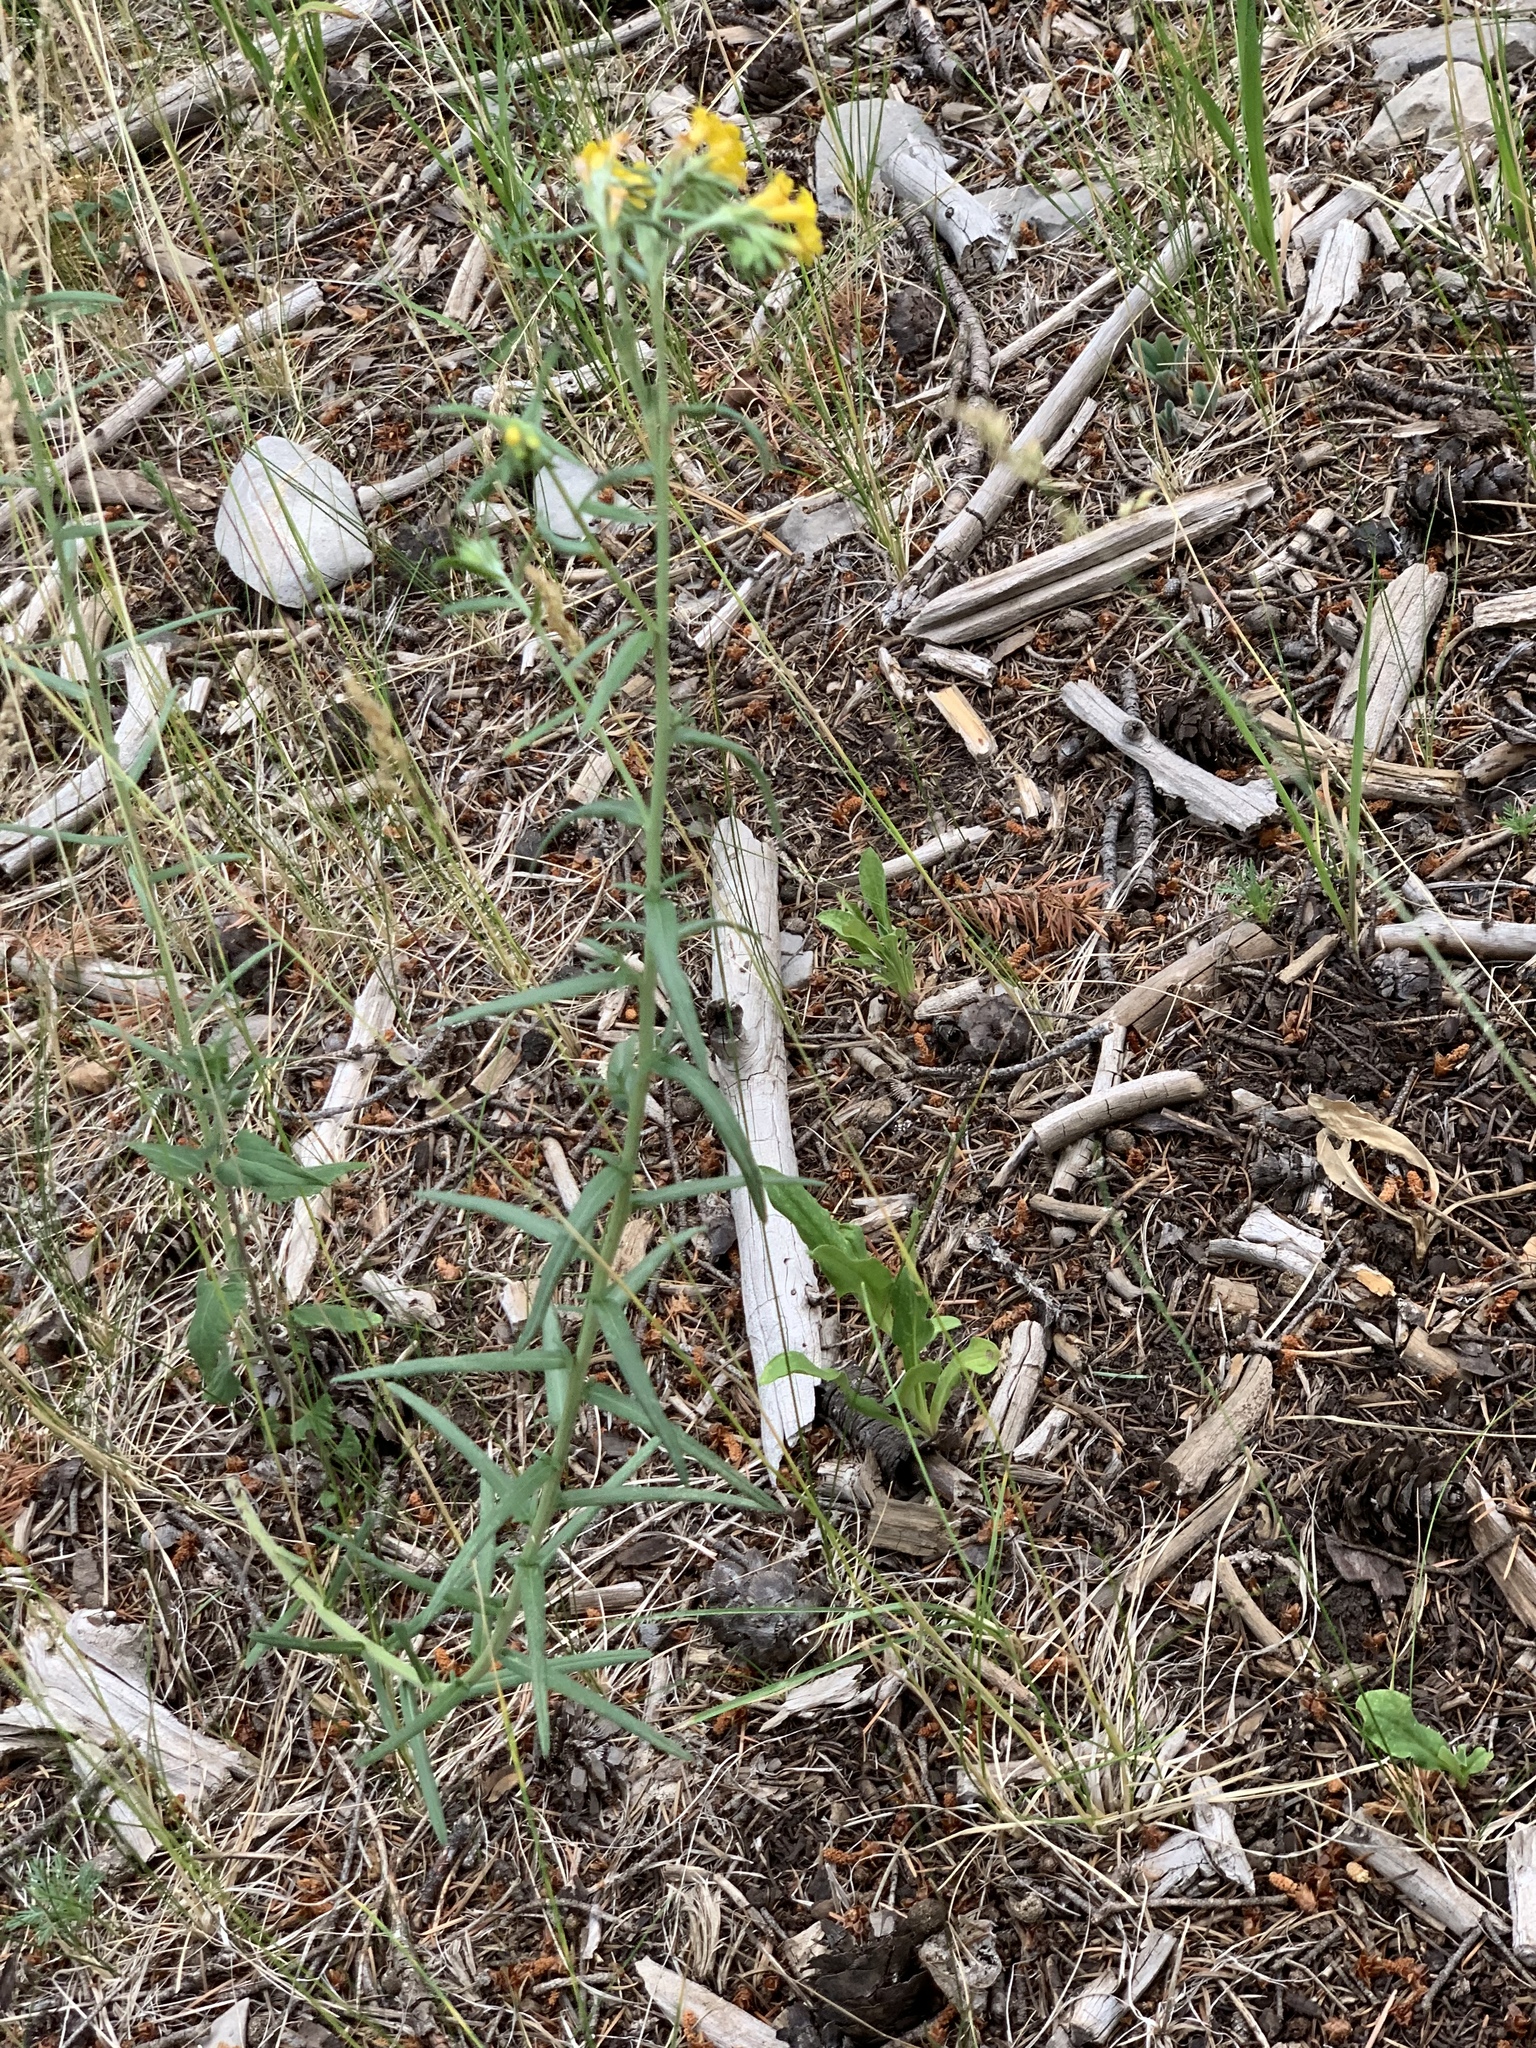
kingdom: Plantae
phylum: Tracheophyta
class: Magnoliopsida
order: Boraginales
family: Boraginaceae
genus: Lithospermum
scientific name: Lithospermum multiflorum
